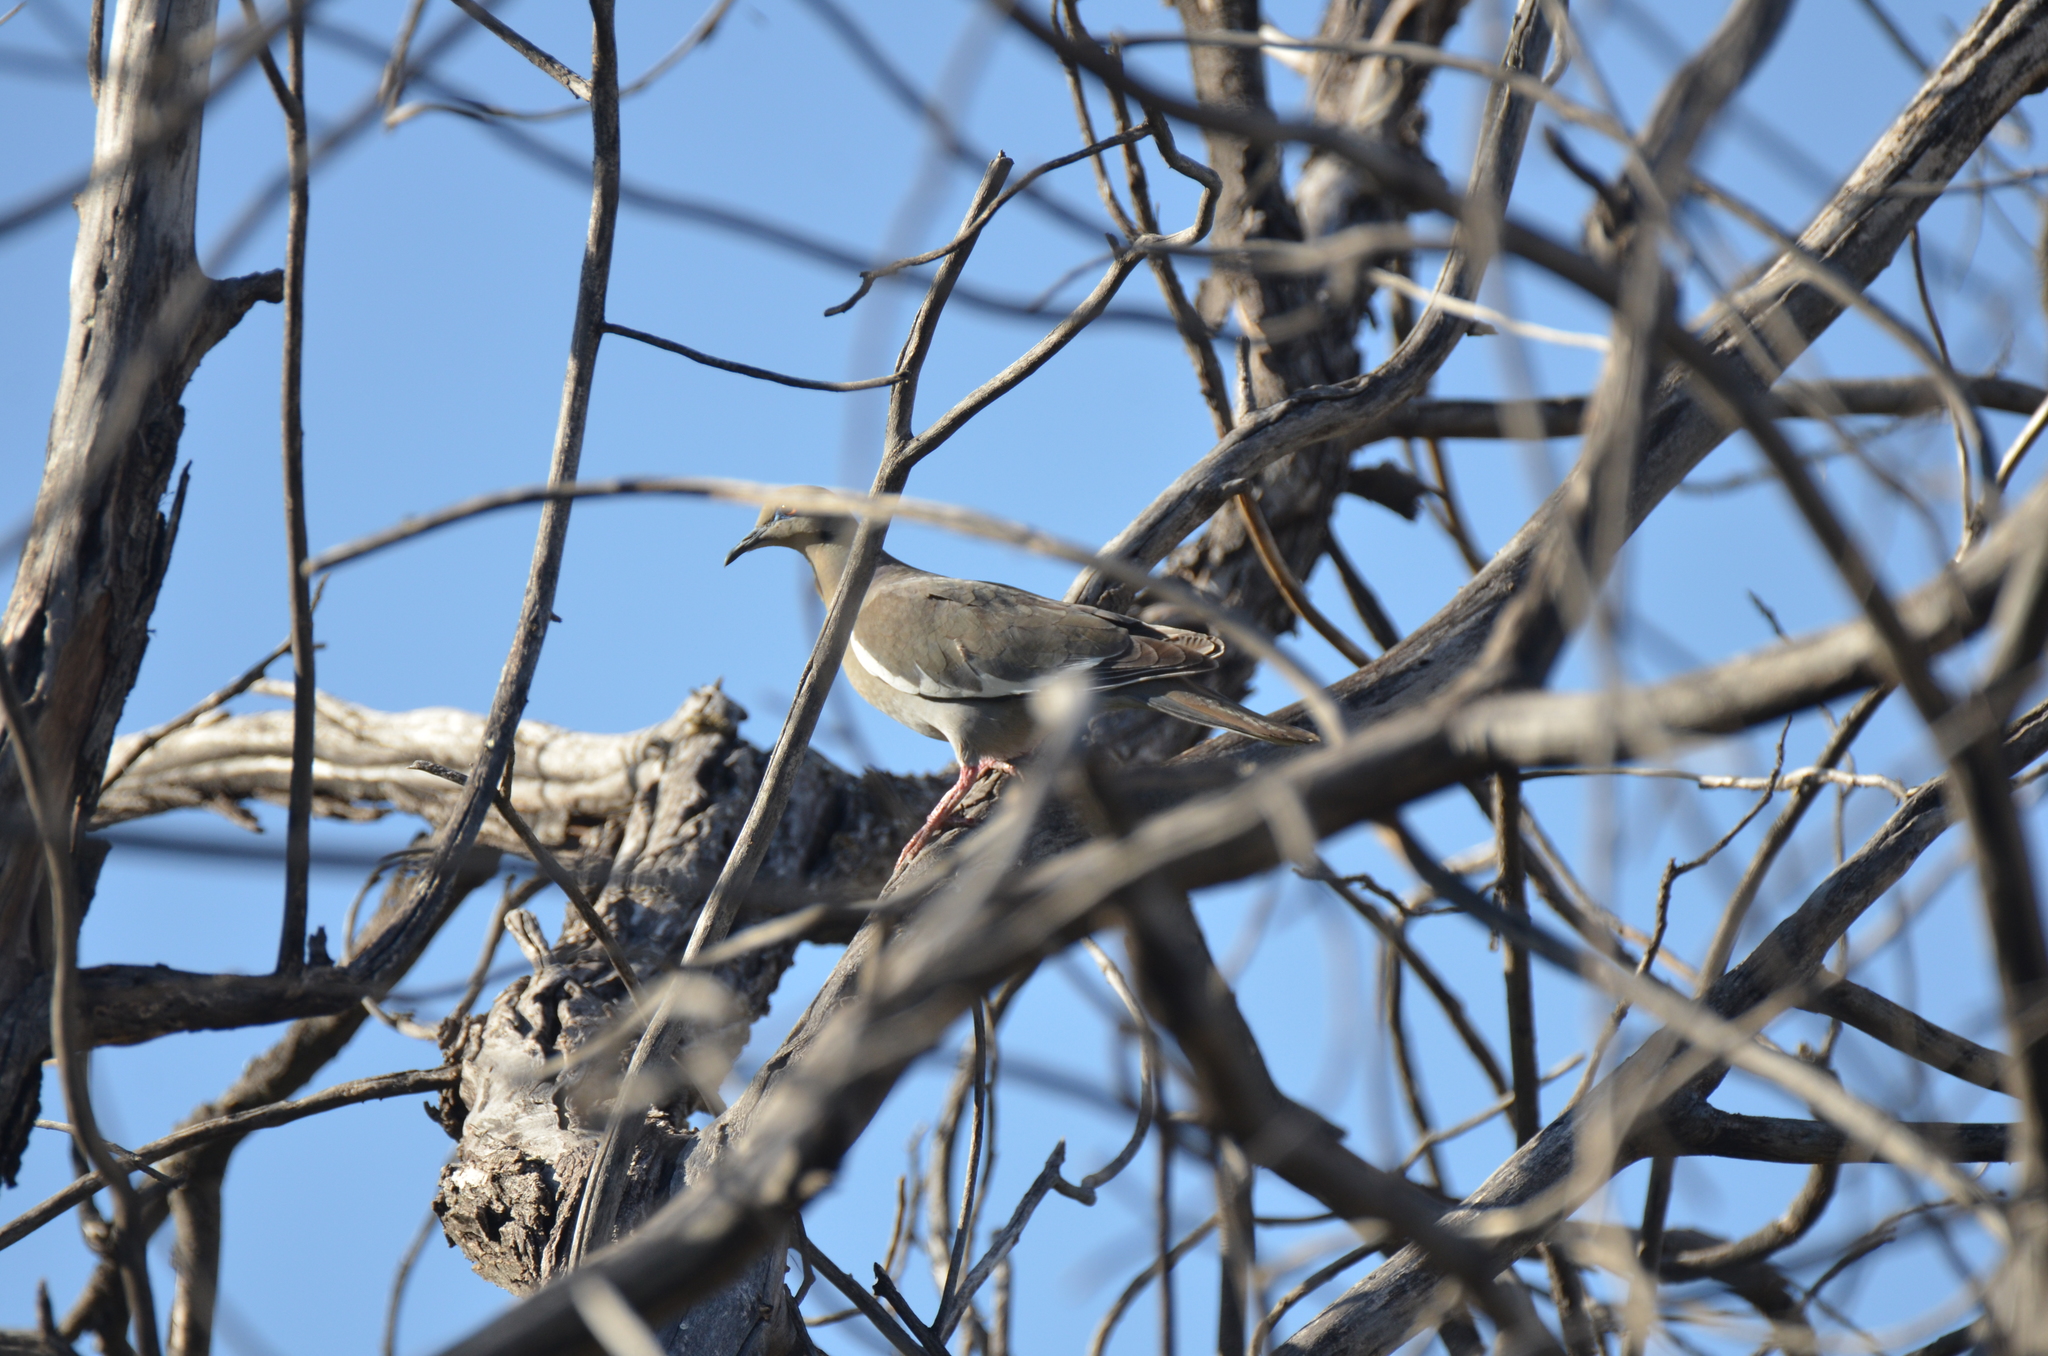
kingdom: Animalia
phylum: Chordata
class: Aves
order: Columbiformes
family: Columbidae
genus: Zenaida
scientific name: Zenaida asiatica
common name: White-winged dove
